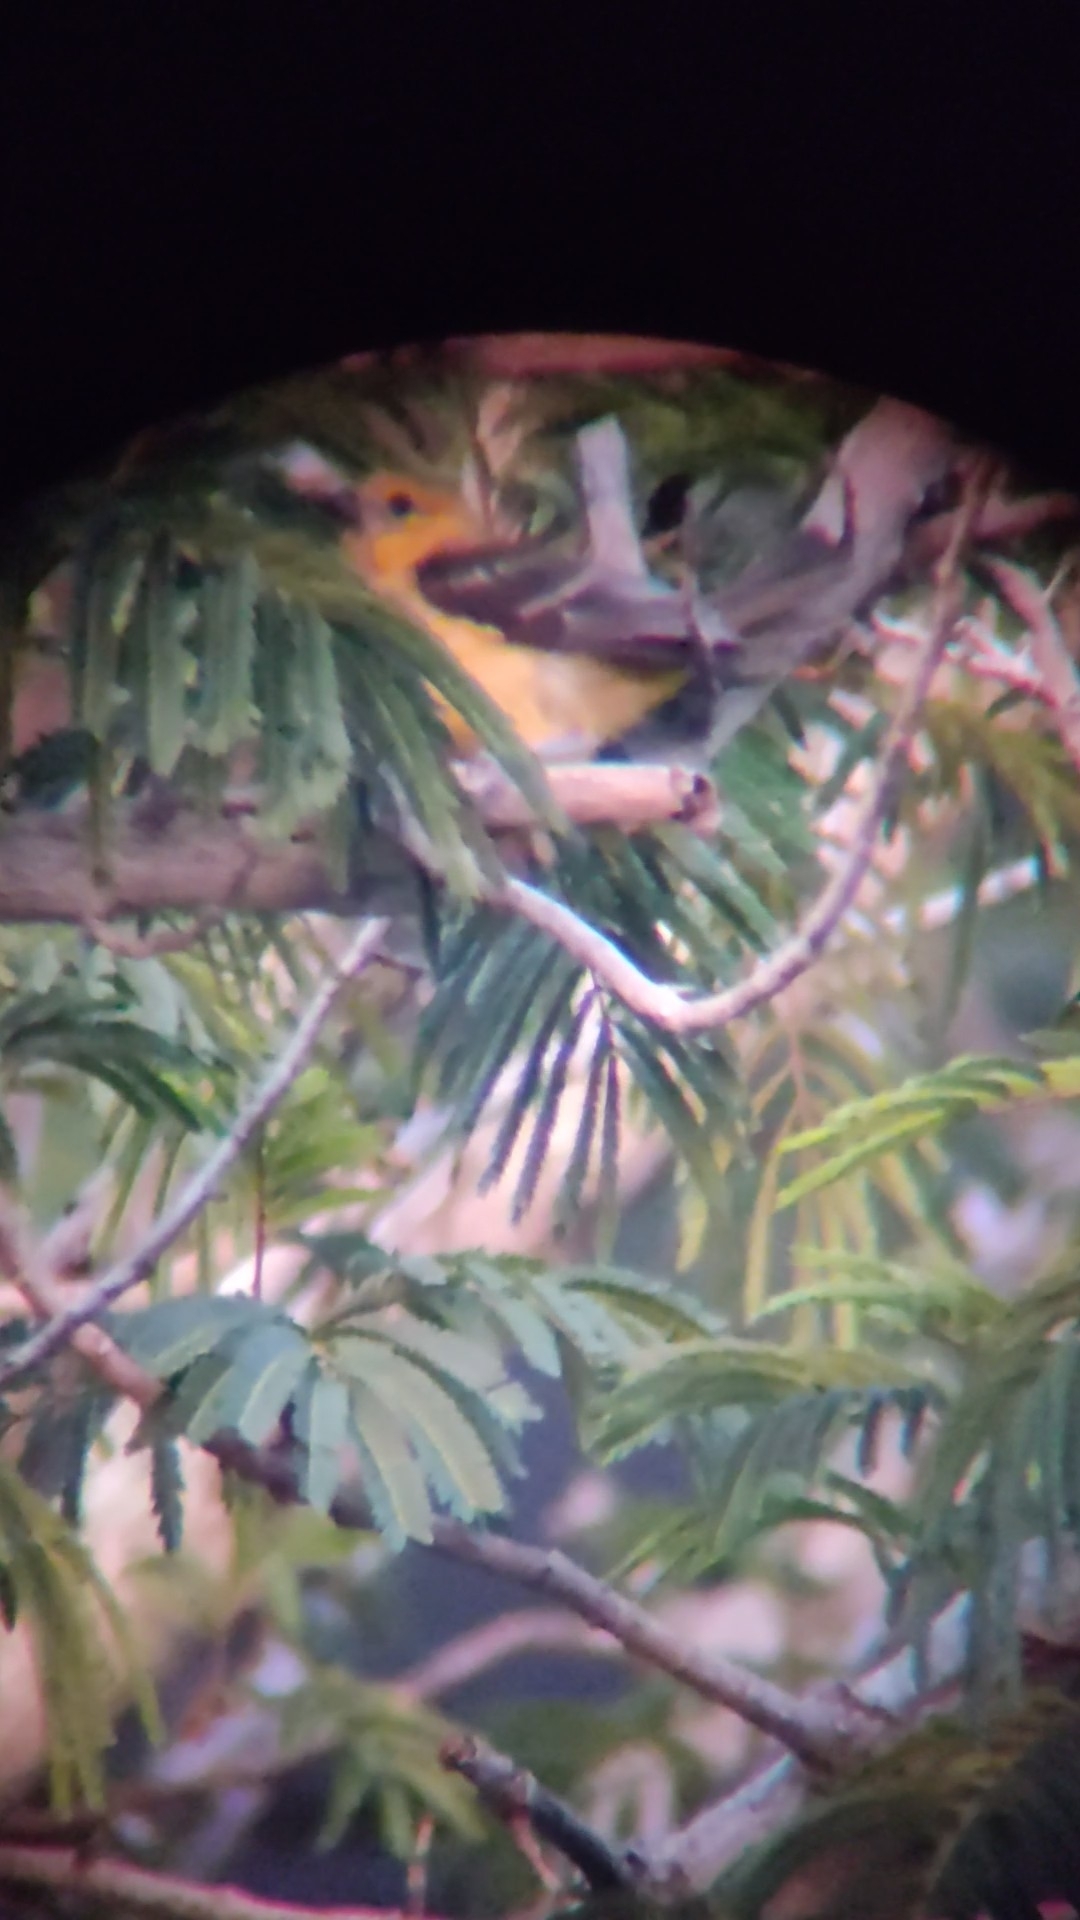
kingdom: Animalia
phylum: Chordata
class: Aves
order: Passeriformes
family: Icteridae
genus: Icterus
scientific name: Icterus cucullatus
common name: Hooded oriole
